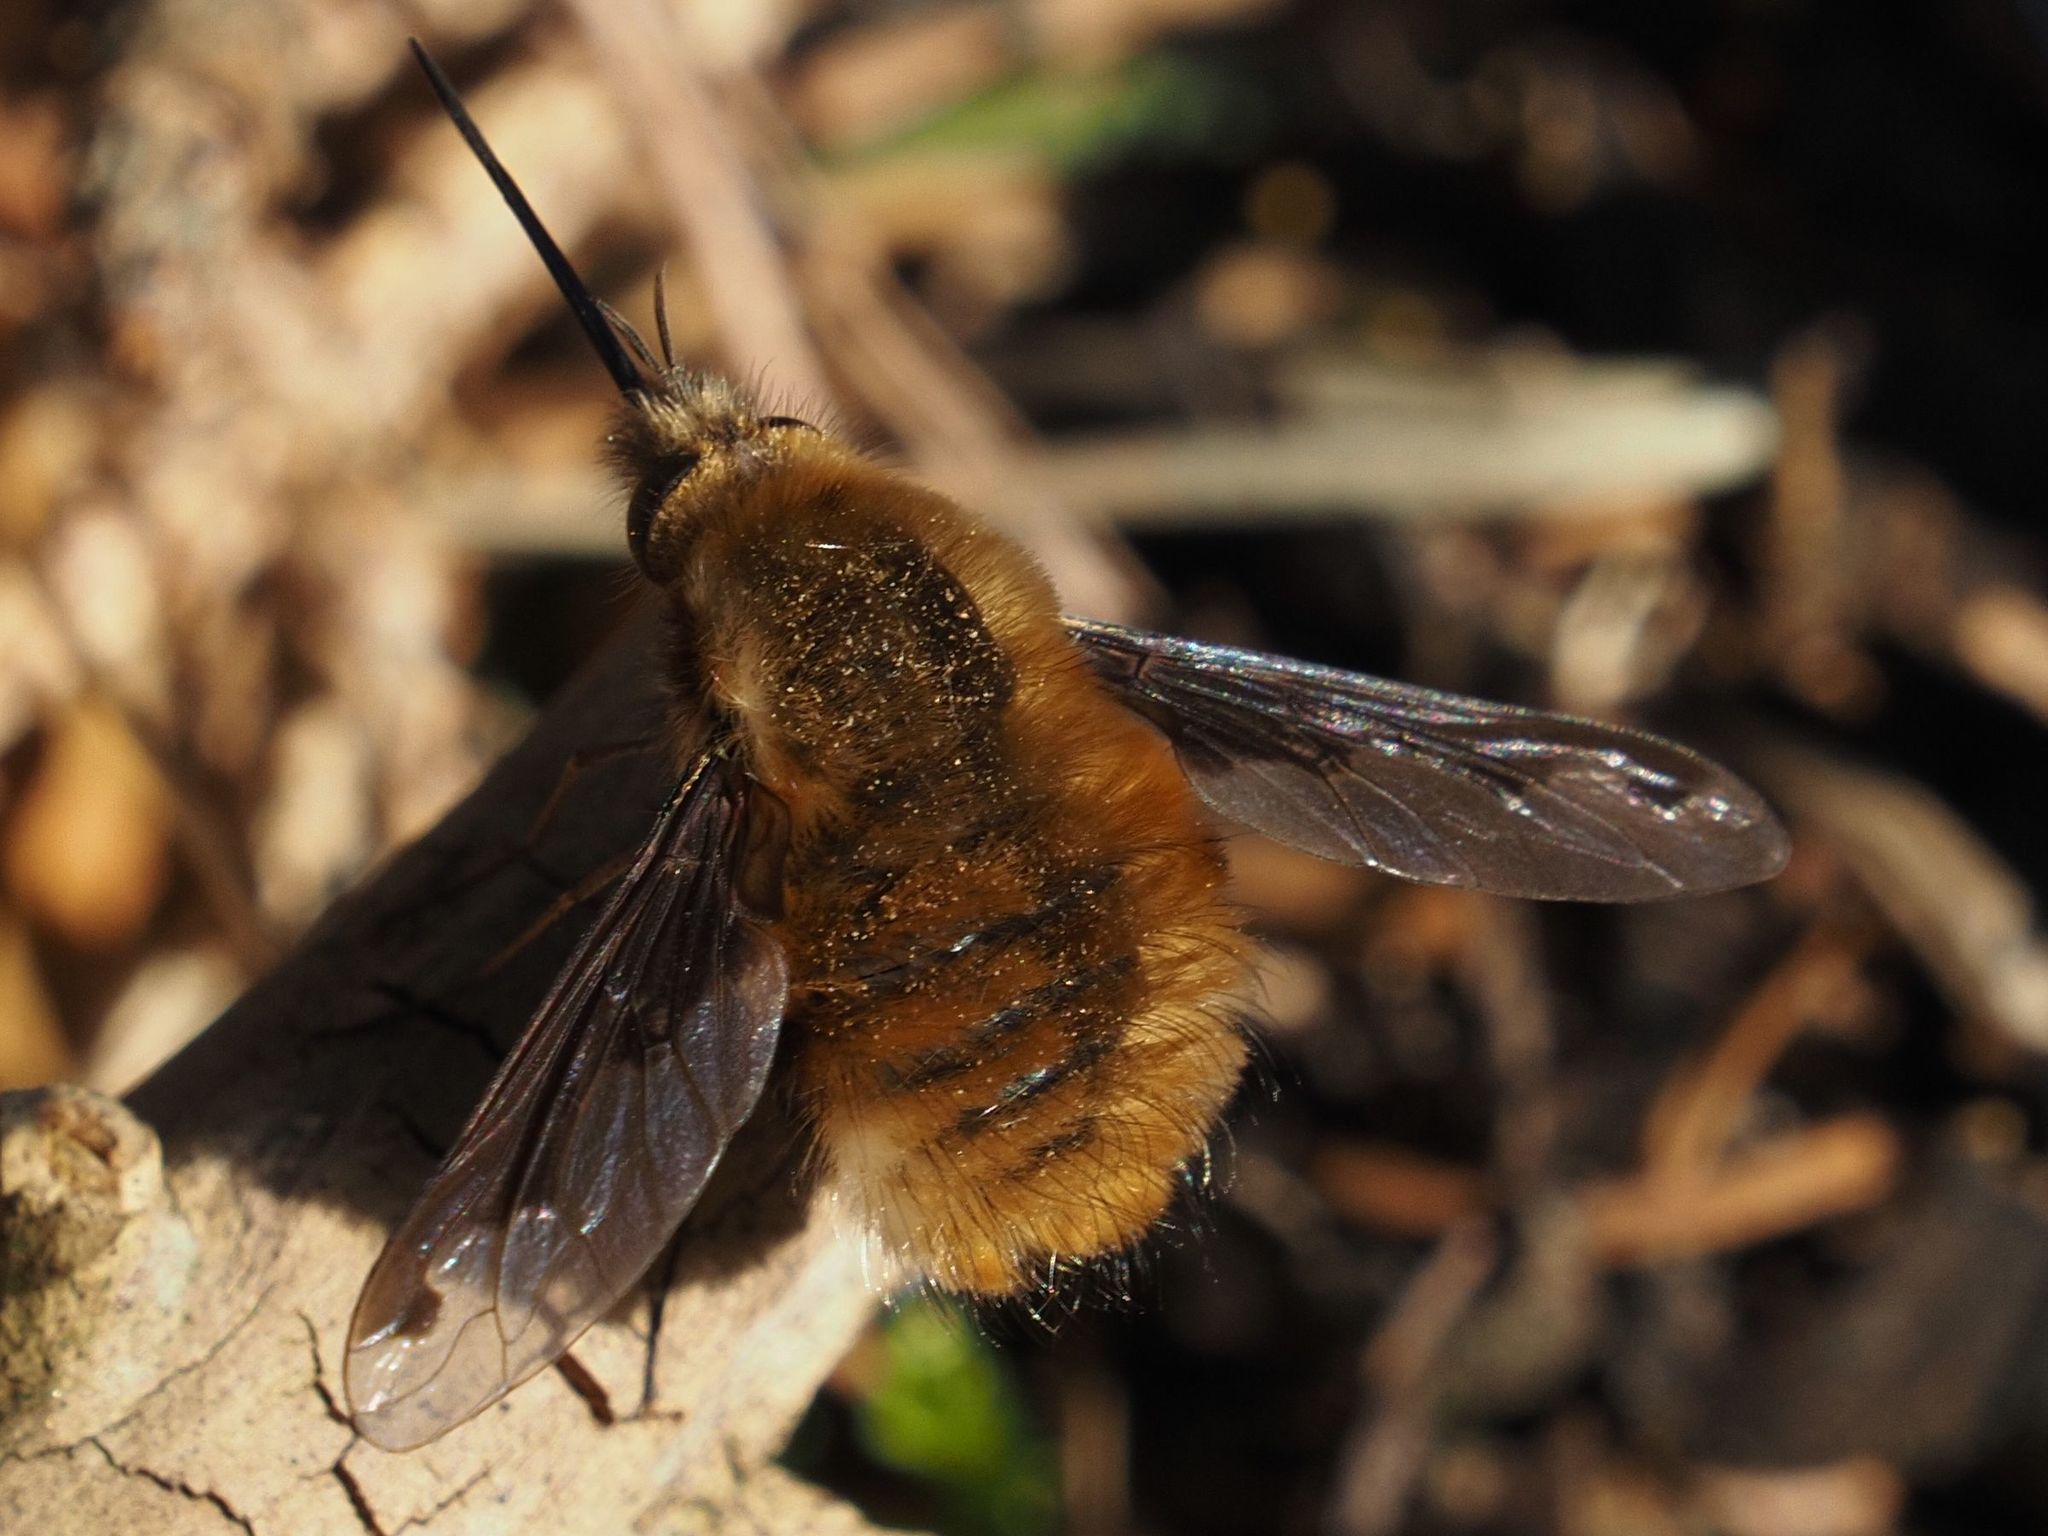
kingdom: Animalia
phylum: Arthropoda
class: Insecta
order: Diptera
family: Bombyliidae
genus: Bombylius
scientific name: Bombylius major
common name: Bee fly
